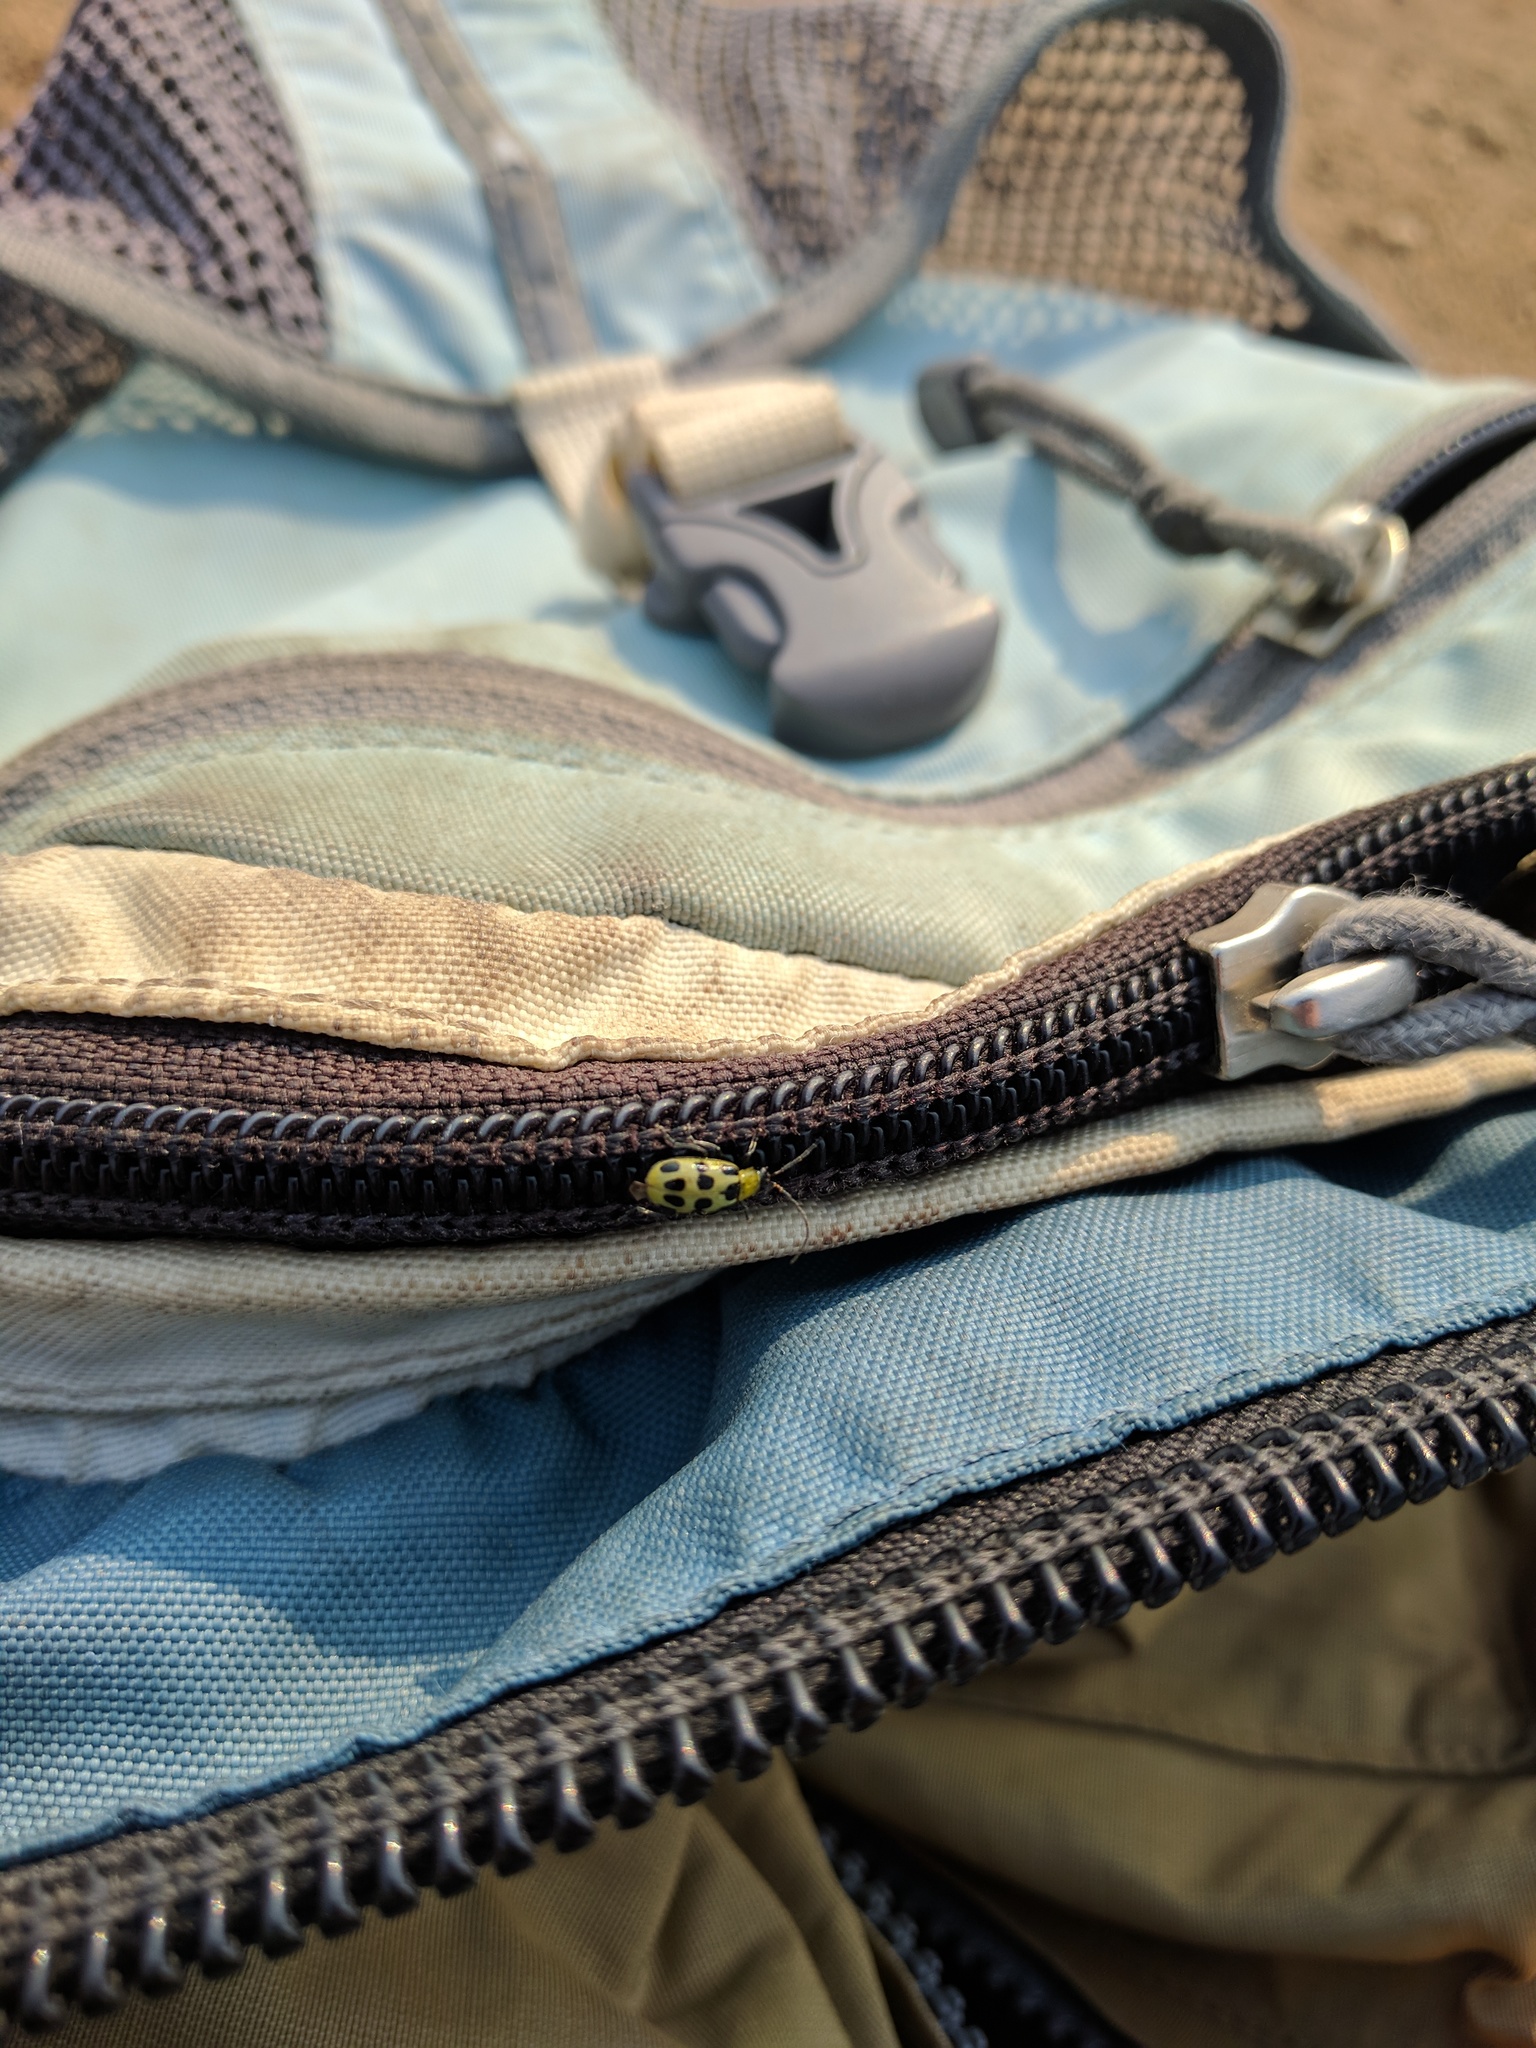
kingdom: Animalia
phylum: Arthropoda
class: Insecta
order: Coleoptera
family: Chrysomelidae
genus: Diabrotica
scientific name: Diabrotica undecimpunctata
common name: Spotted cucumber beetle
